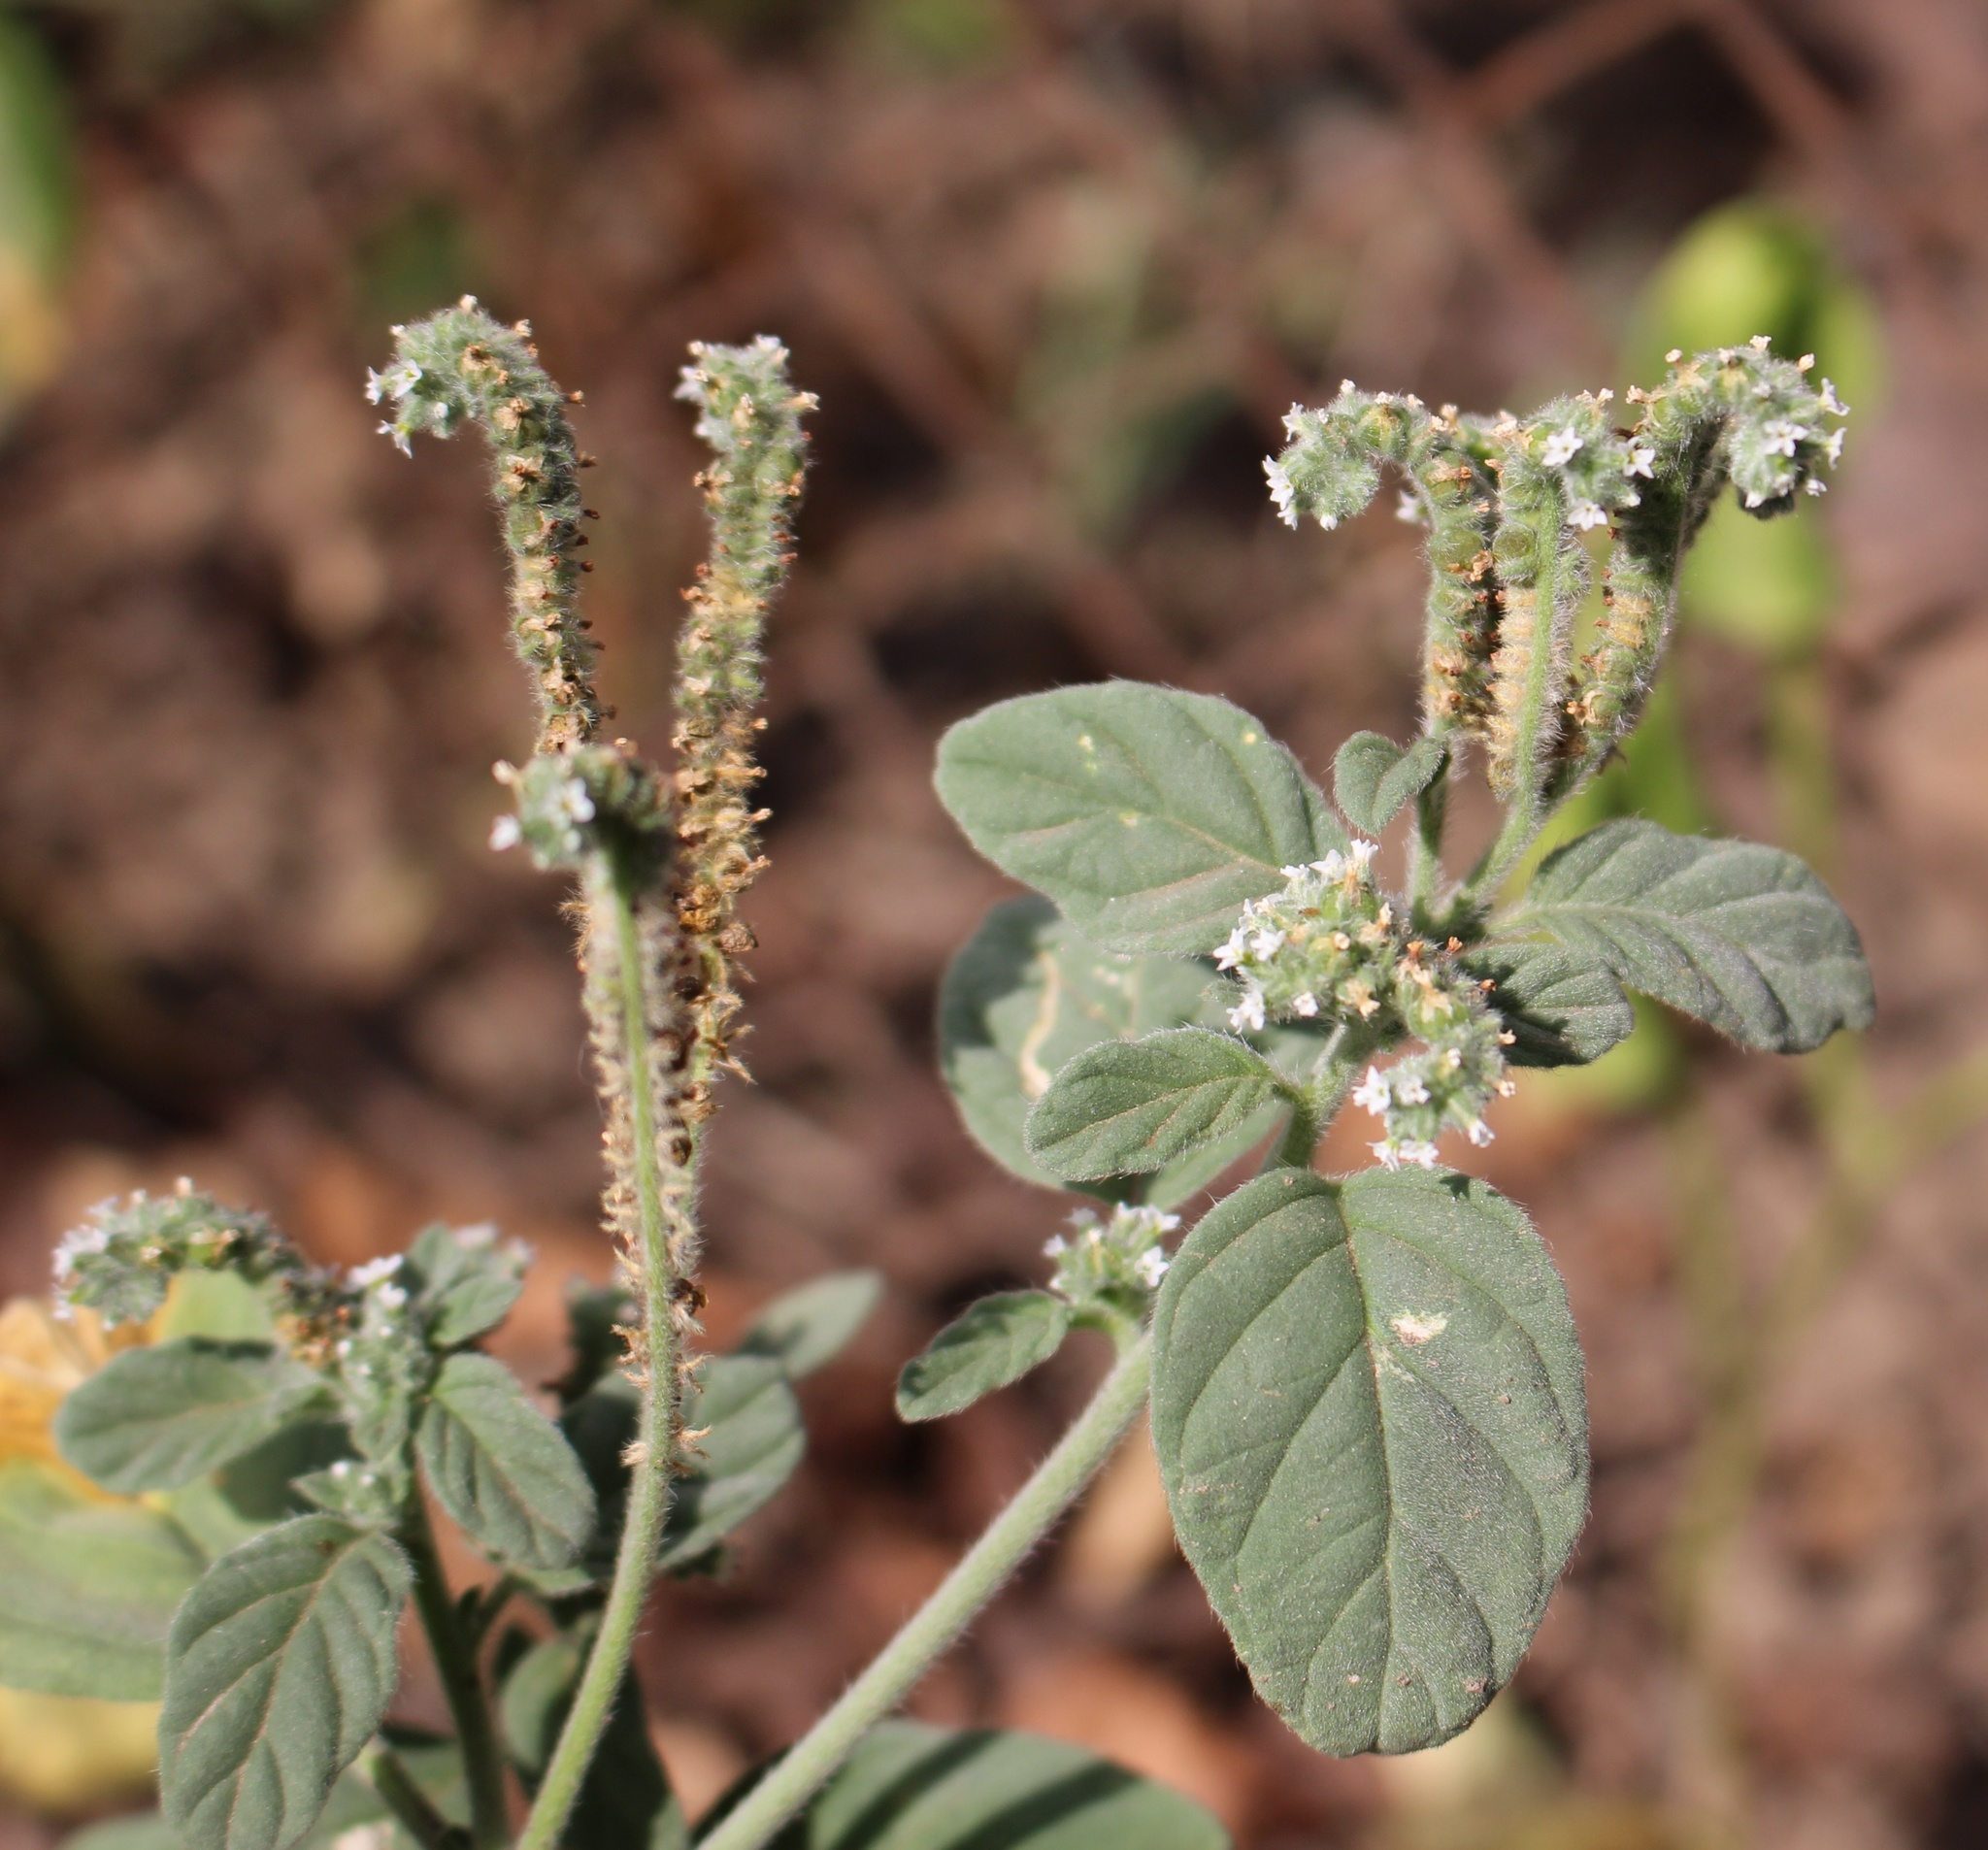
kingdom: Plantae
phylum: Tracheophyta
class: Magnoliopsida
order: Boraginales
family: Heliotropiaceae
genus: Heliotropium
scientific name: Heliotropium europaeum
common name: European heliotrope
